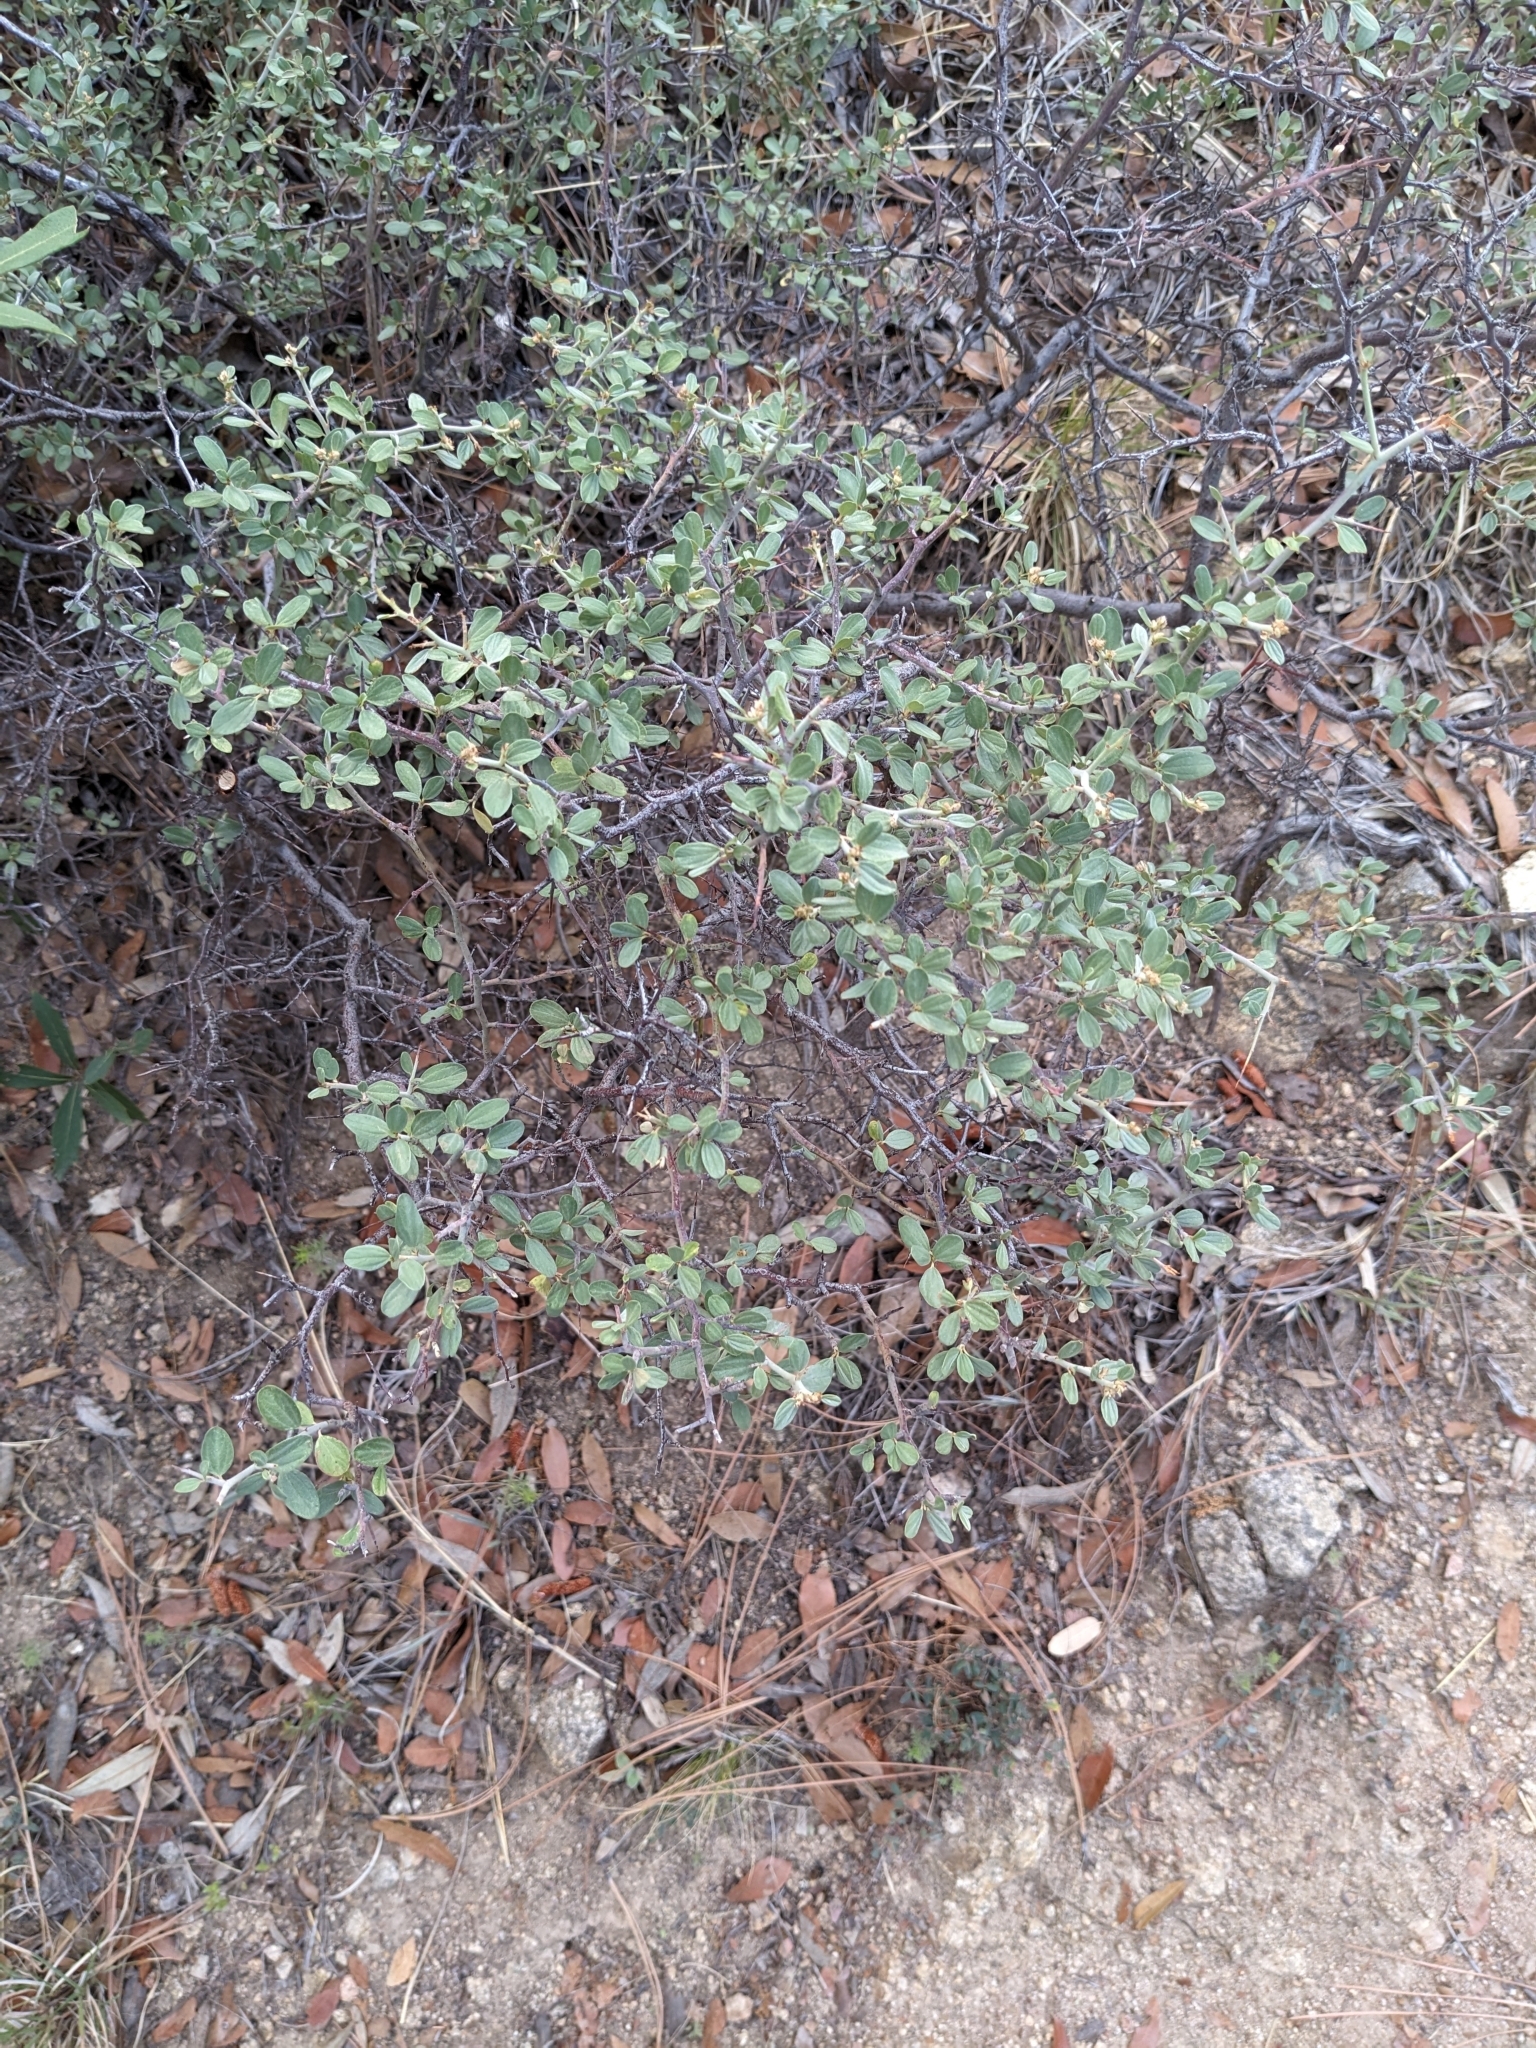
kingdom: Plantae
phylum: Tracheophyta
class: Magnoliopsida
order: Rosales
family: Rhamnaceae
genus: Ceanothus
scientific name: Ceanothus fendleri
